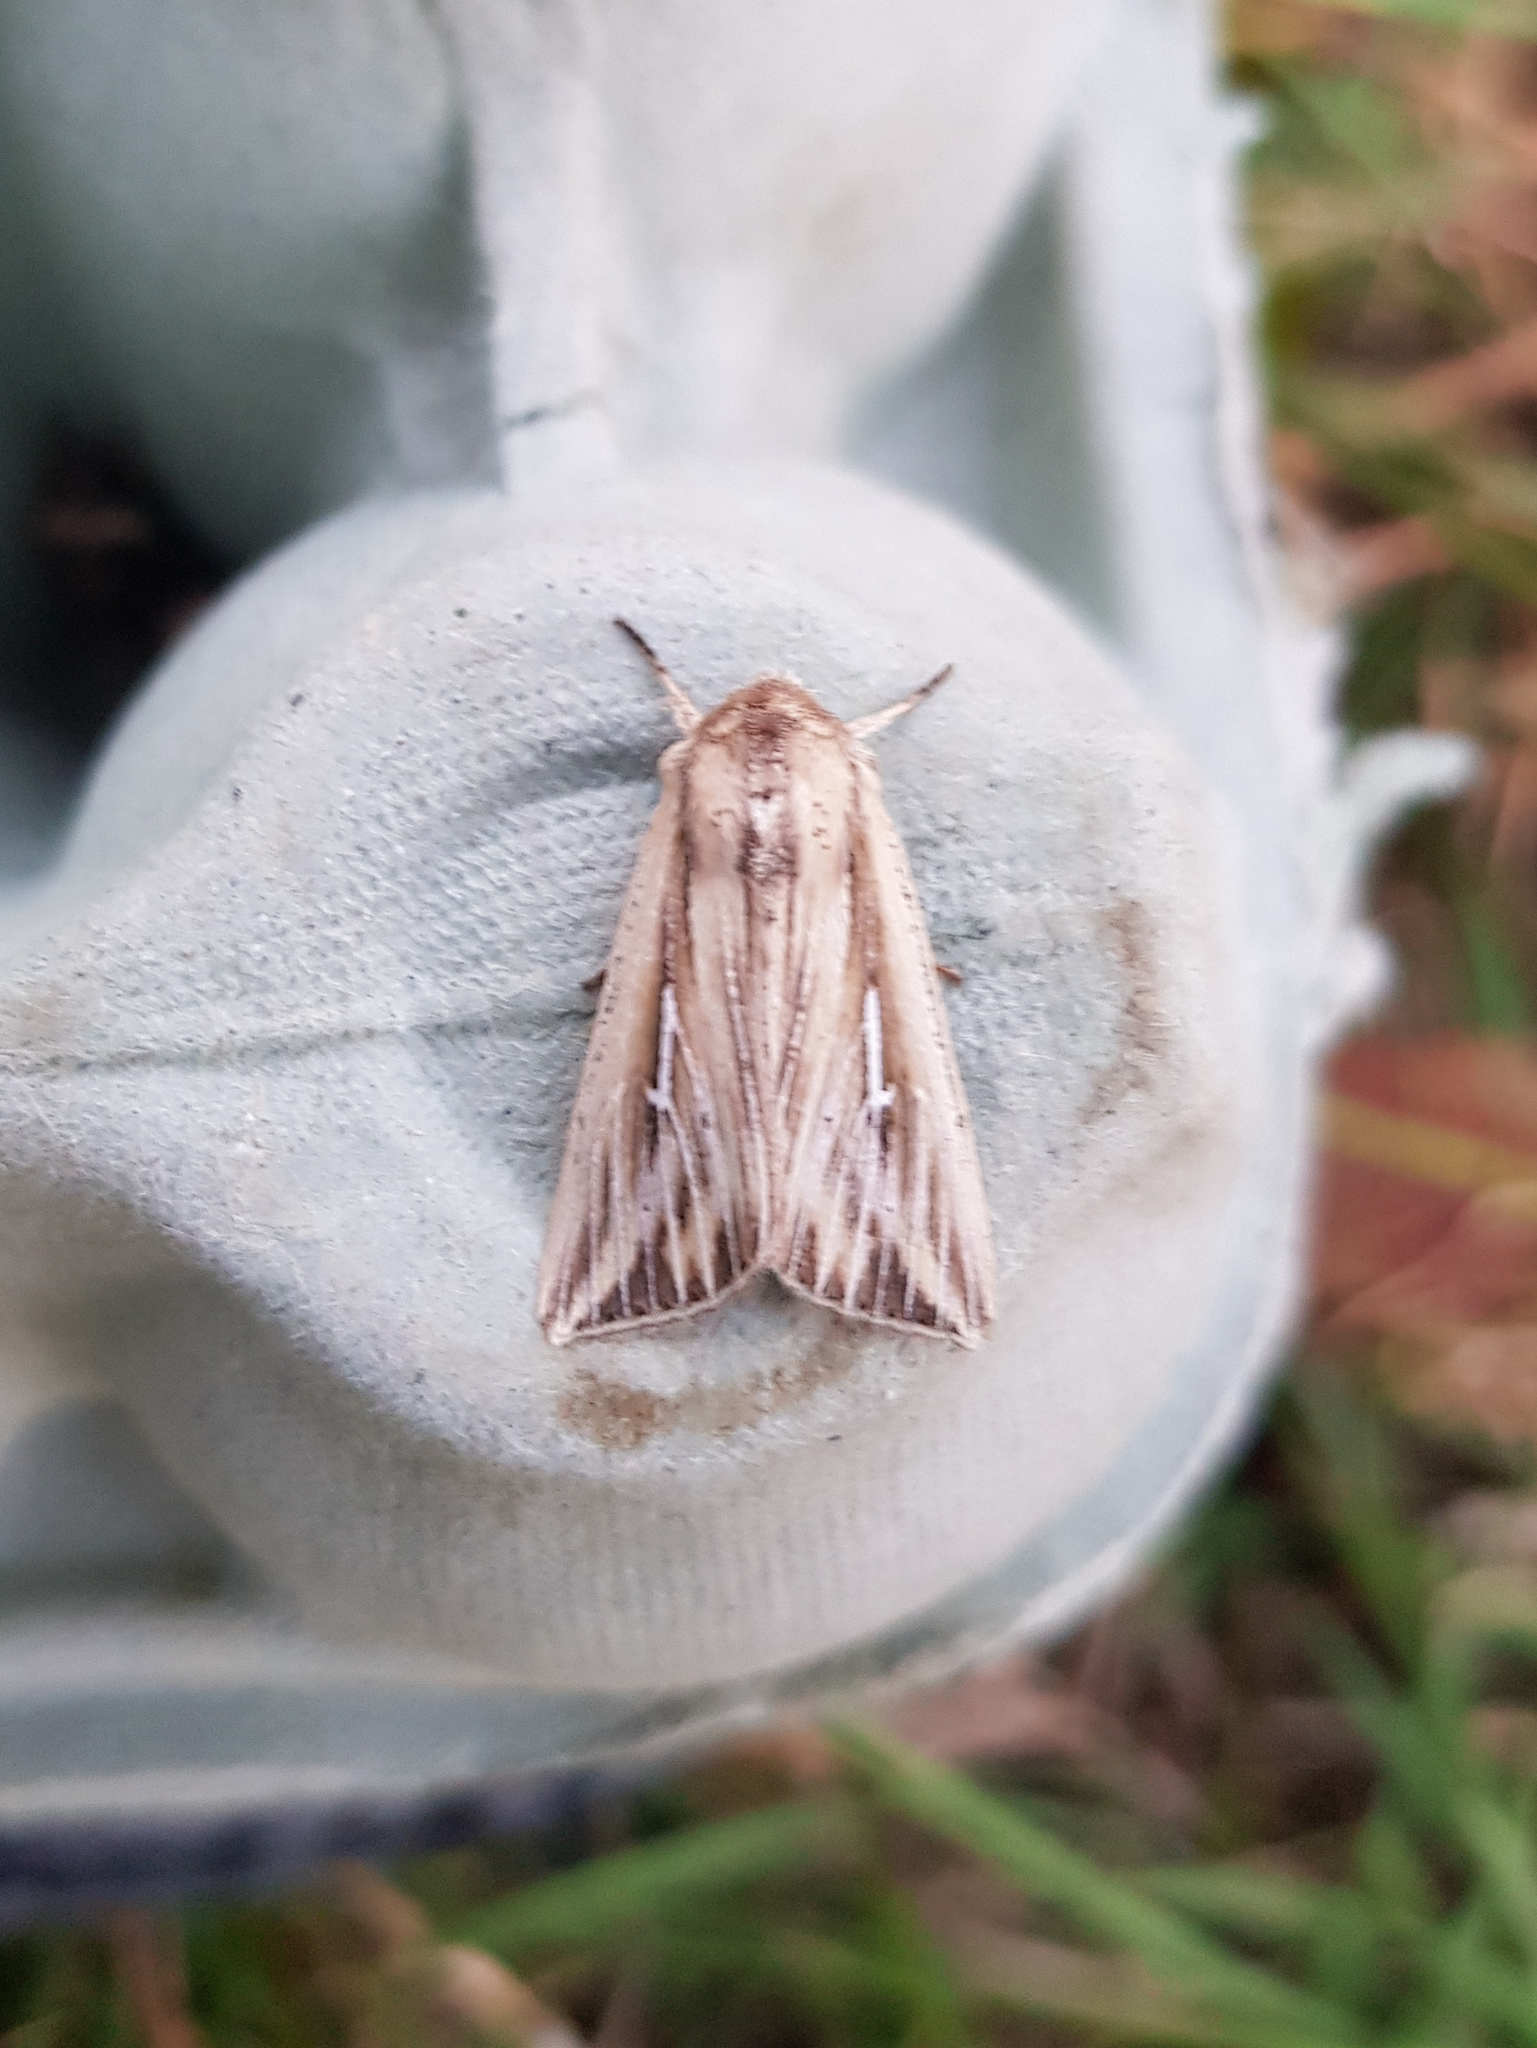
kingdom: Animalia
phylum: Arthropoda
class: Insecta
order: Lepidoptera
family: Noctuidae
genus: Mythimna
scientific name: Mythimna l-album
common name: L-album wainscot
